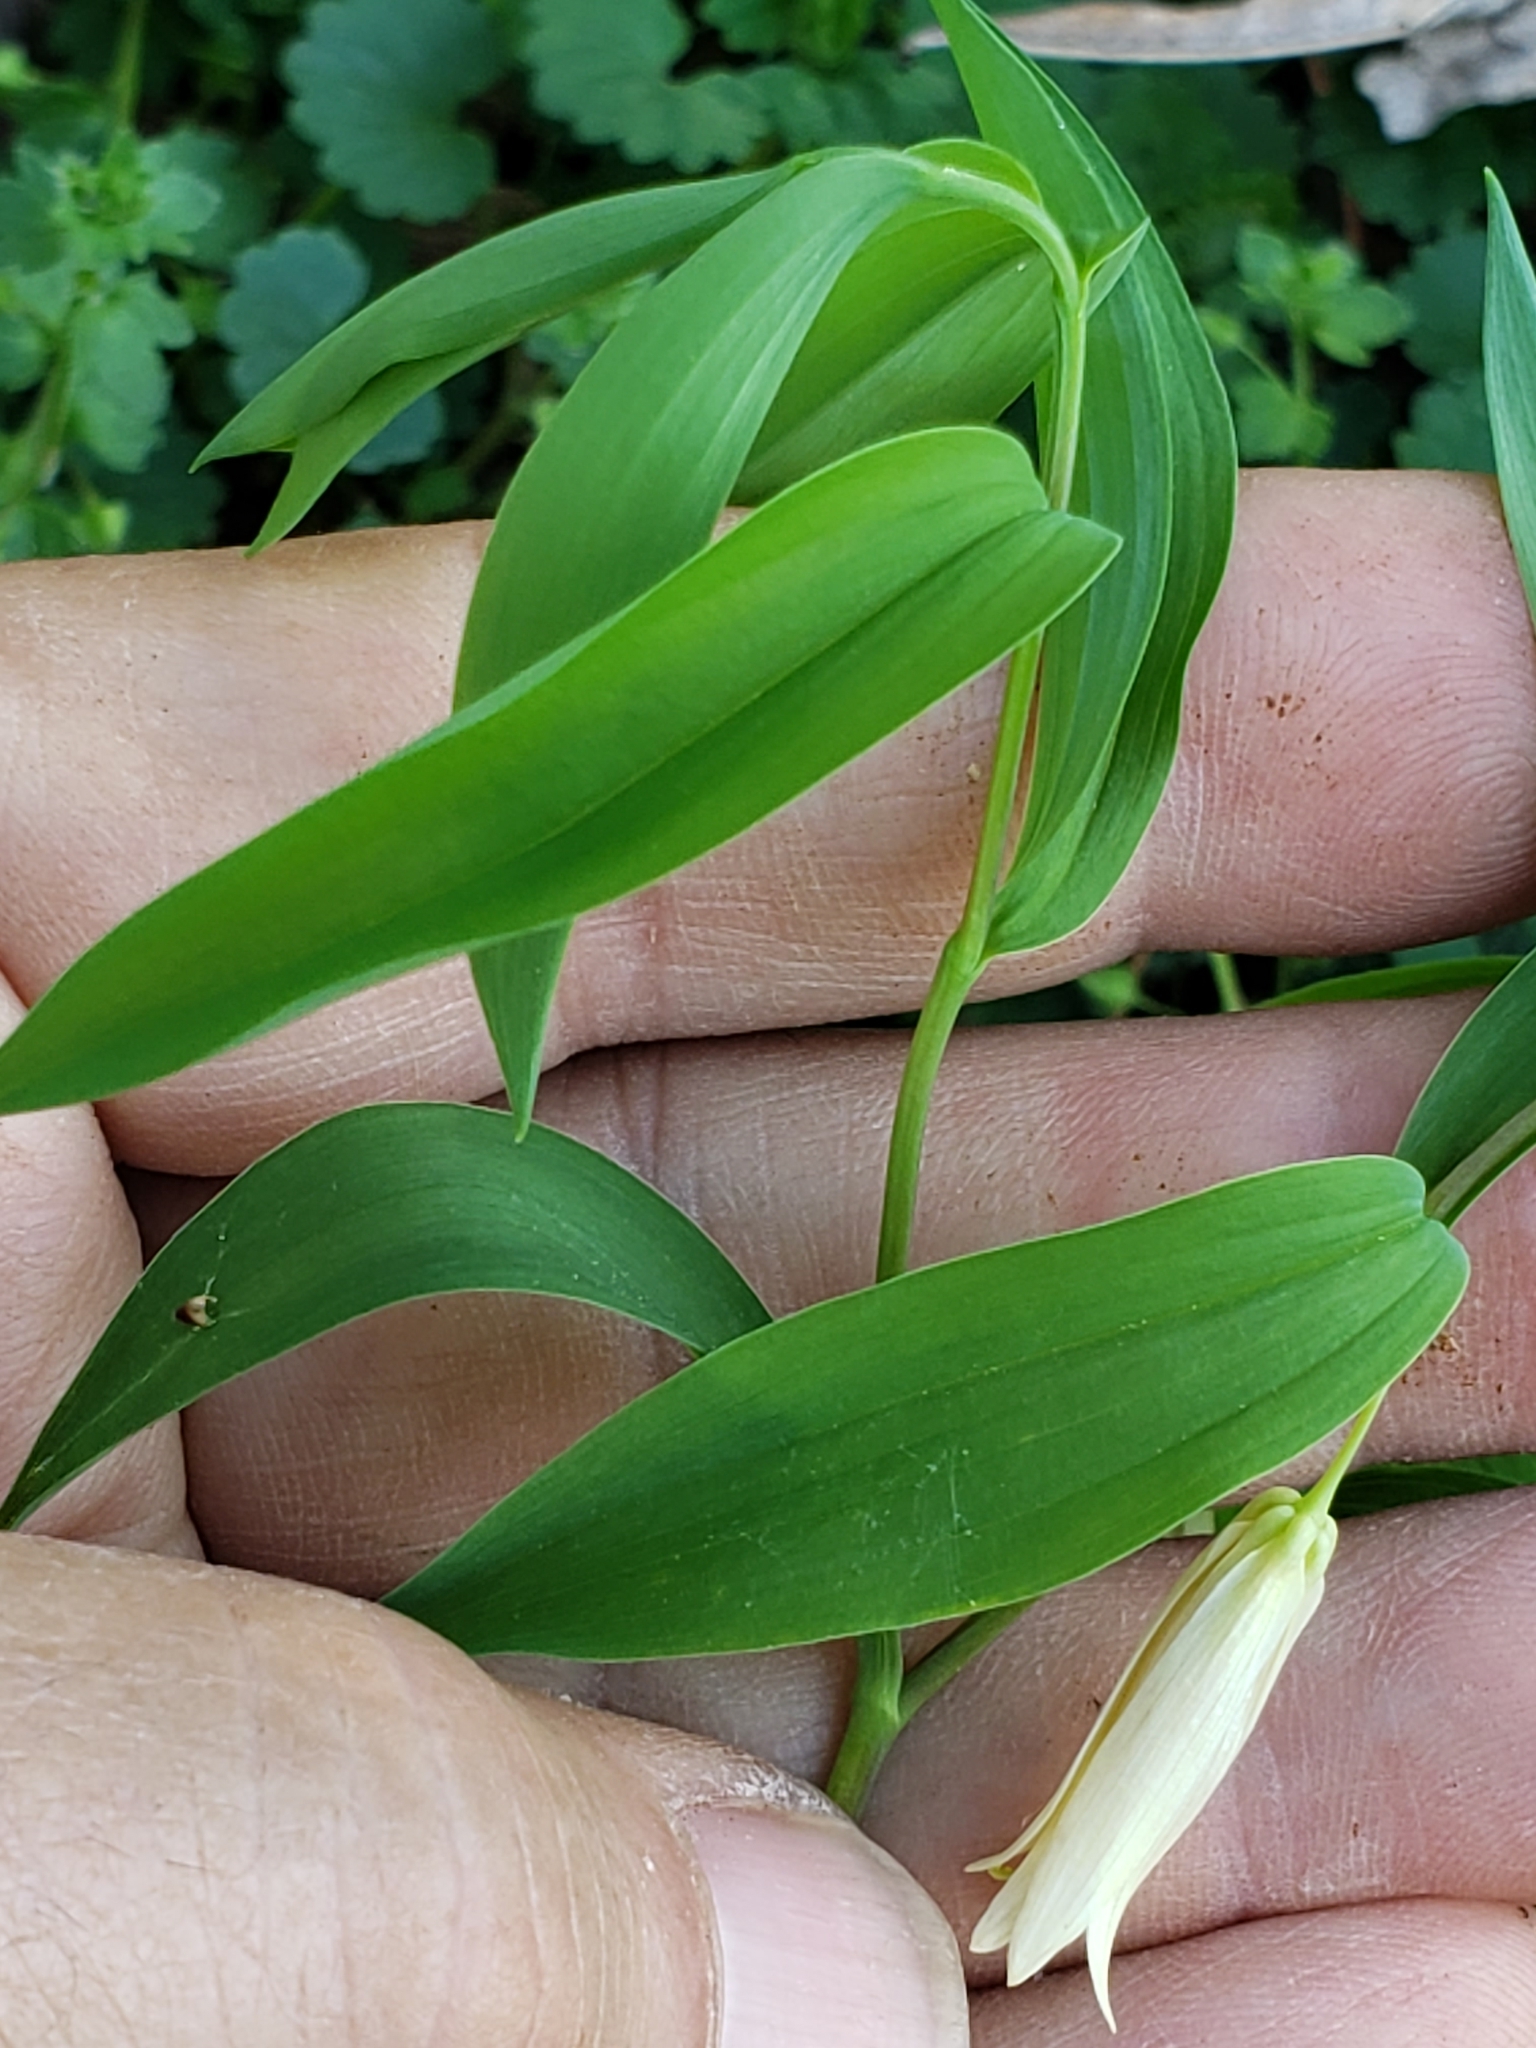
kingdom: Plantae
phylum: Tracheophyta
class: Liliopsida
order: Liliales
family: Colchicaceae
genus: Uvularia
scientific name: Uvularia sessilifolia
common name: Straw-lily
